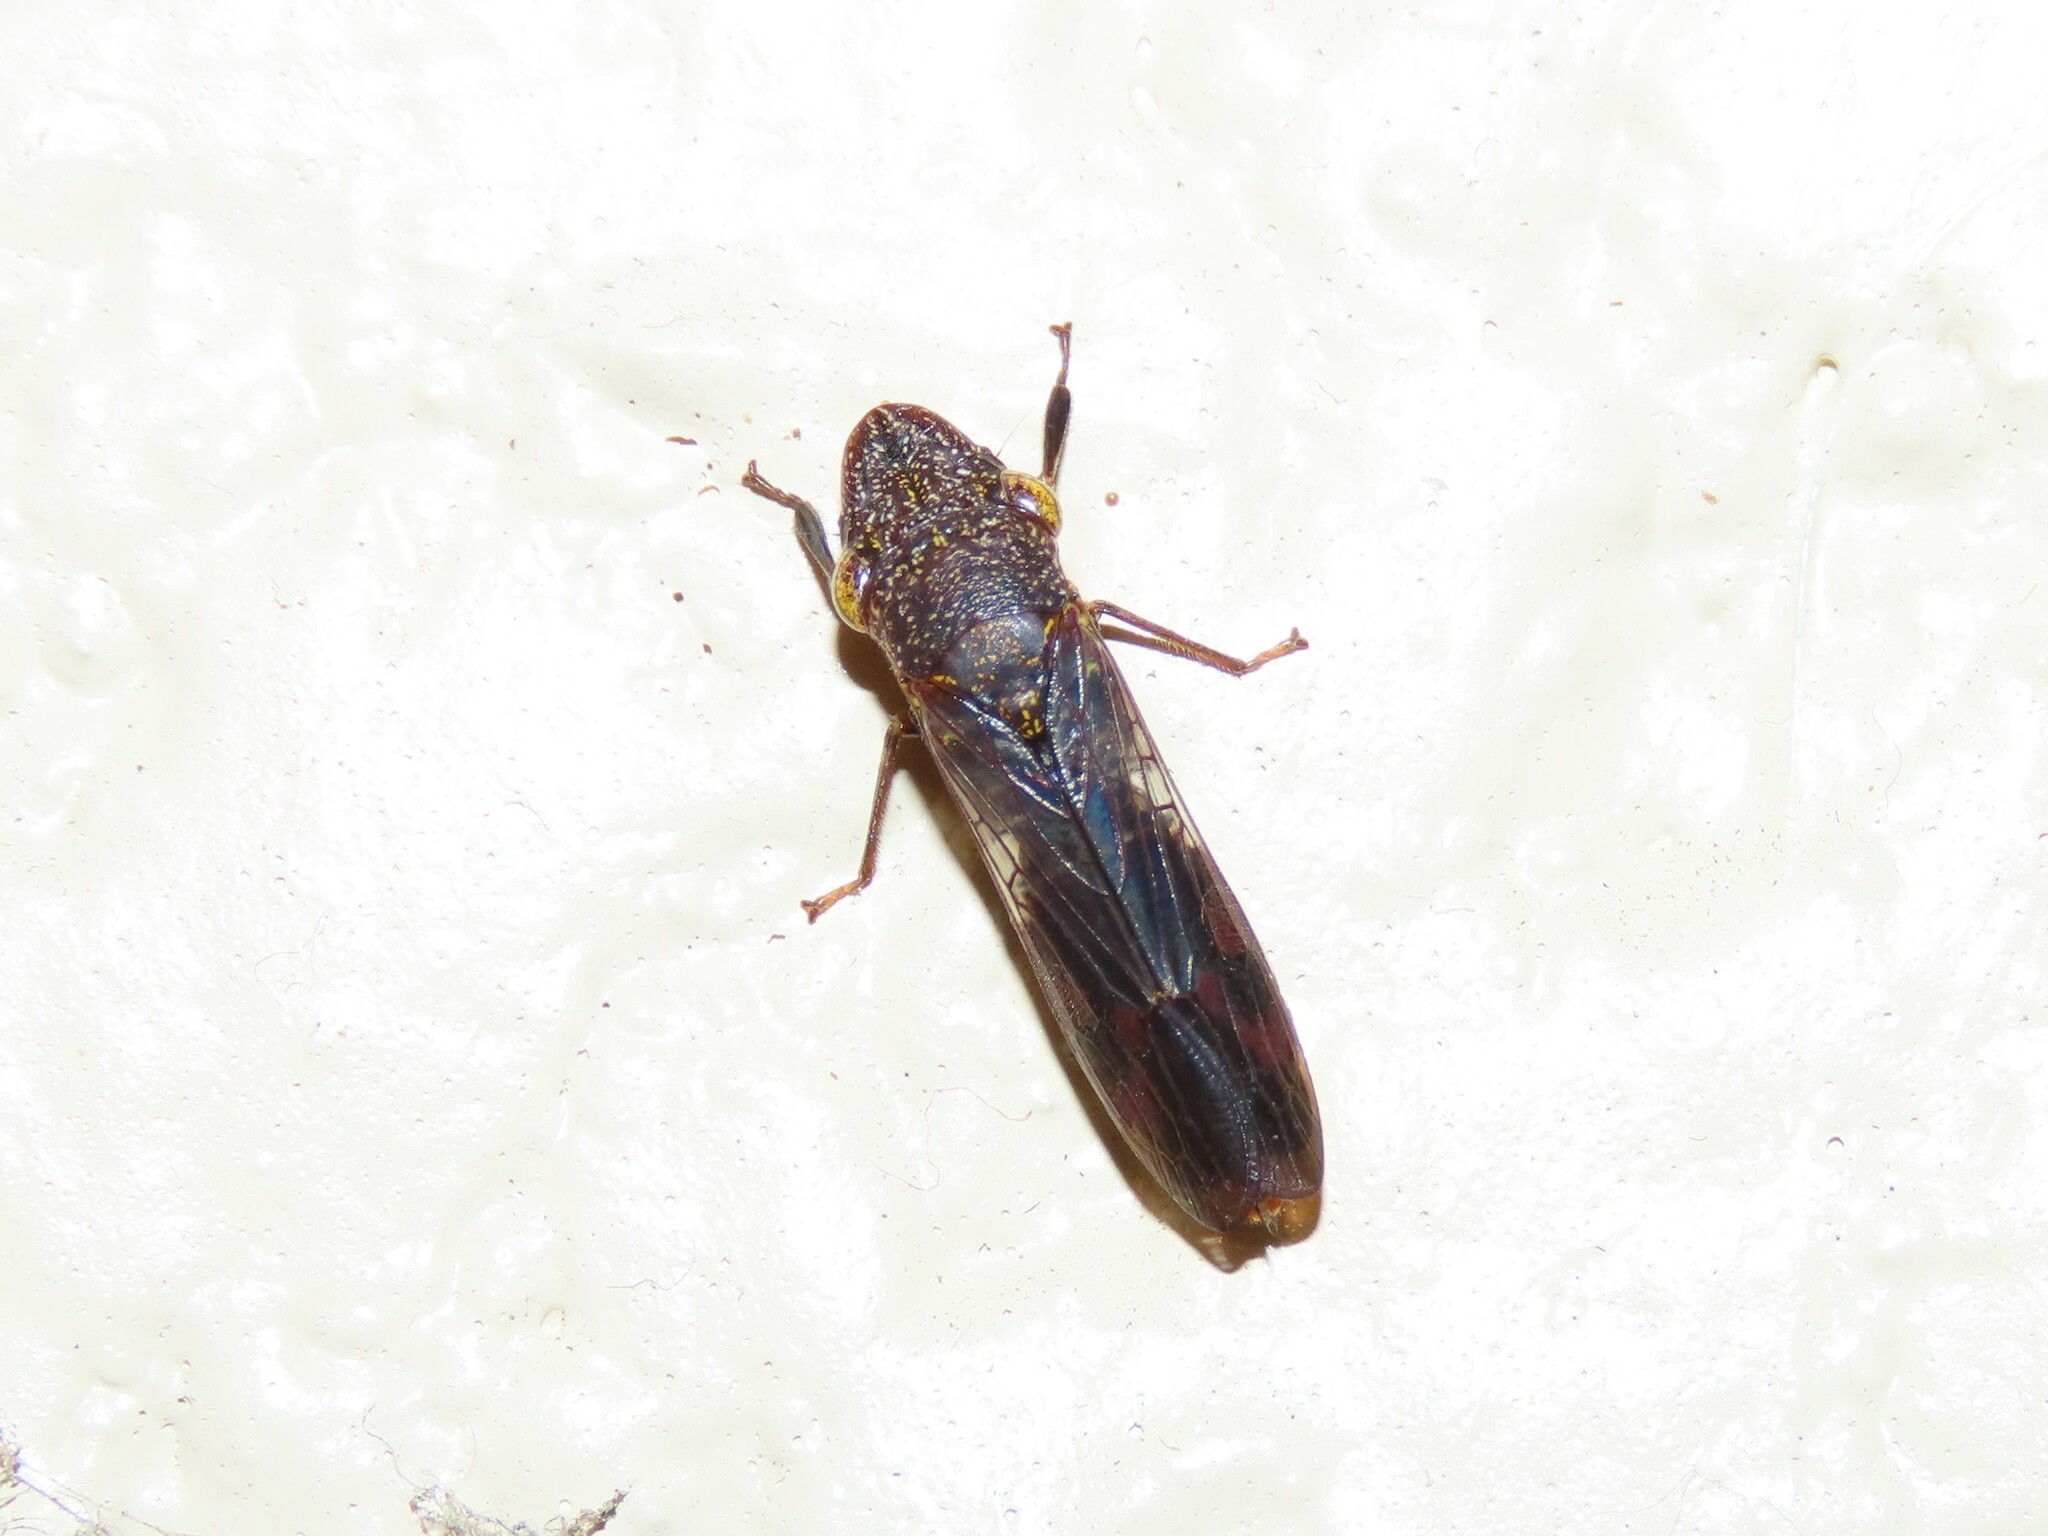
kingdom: Animalia
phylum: Arthropoda
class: Insecta
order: Hemiptera
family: Cicadellidae
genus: Homalodisca
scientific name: Homalodisca vitripennis
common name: Glassy-winged sharpshooter
